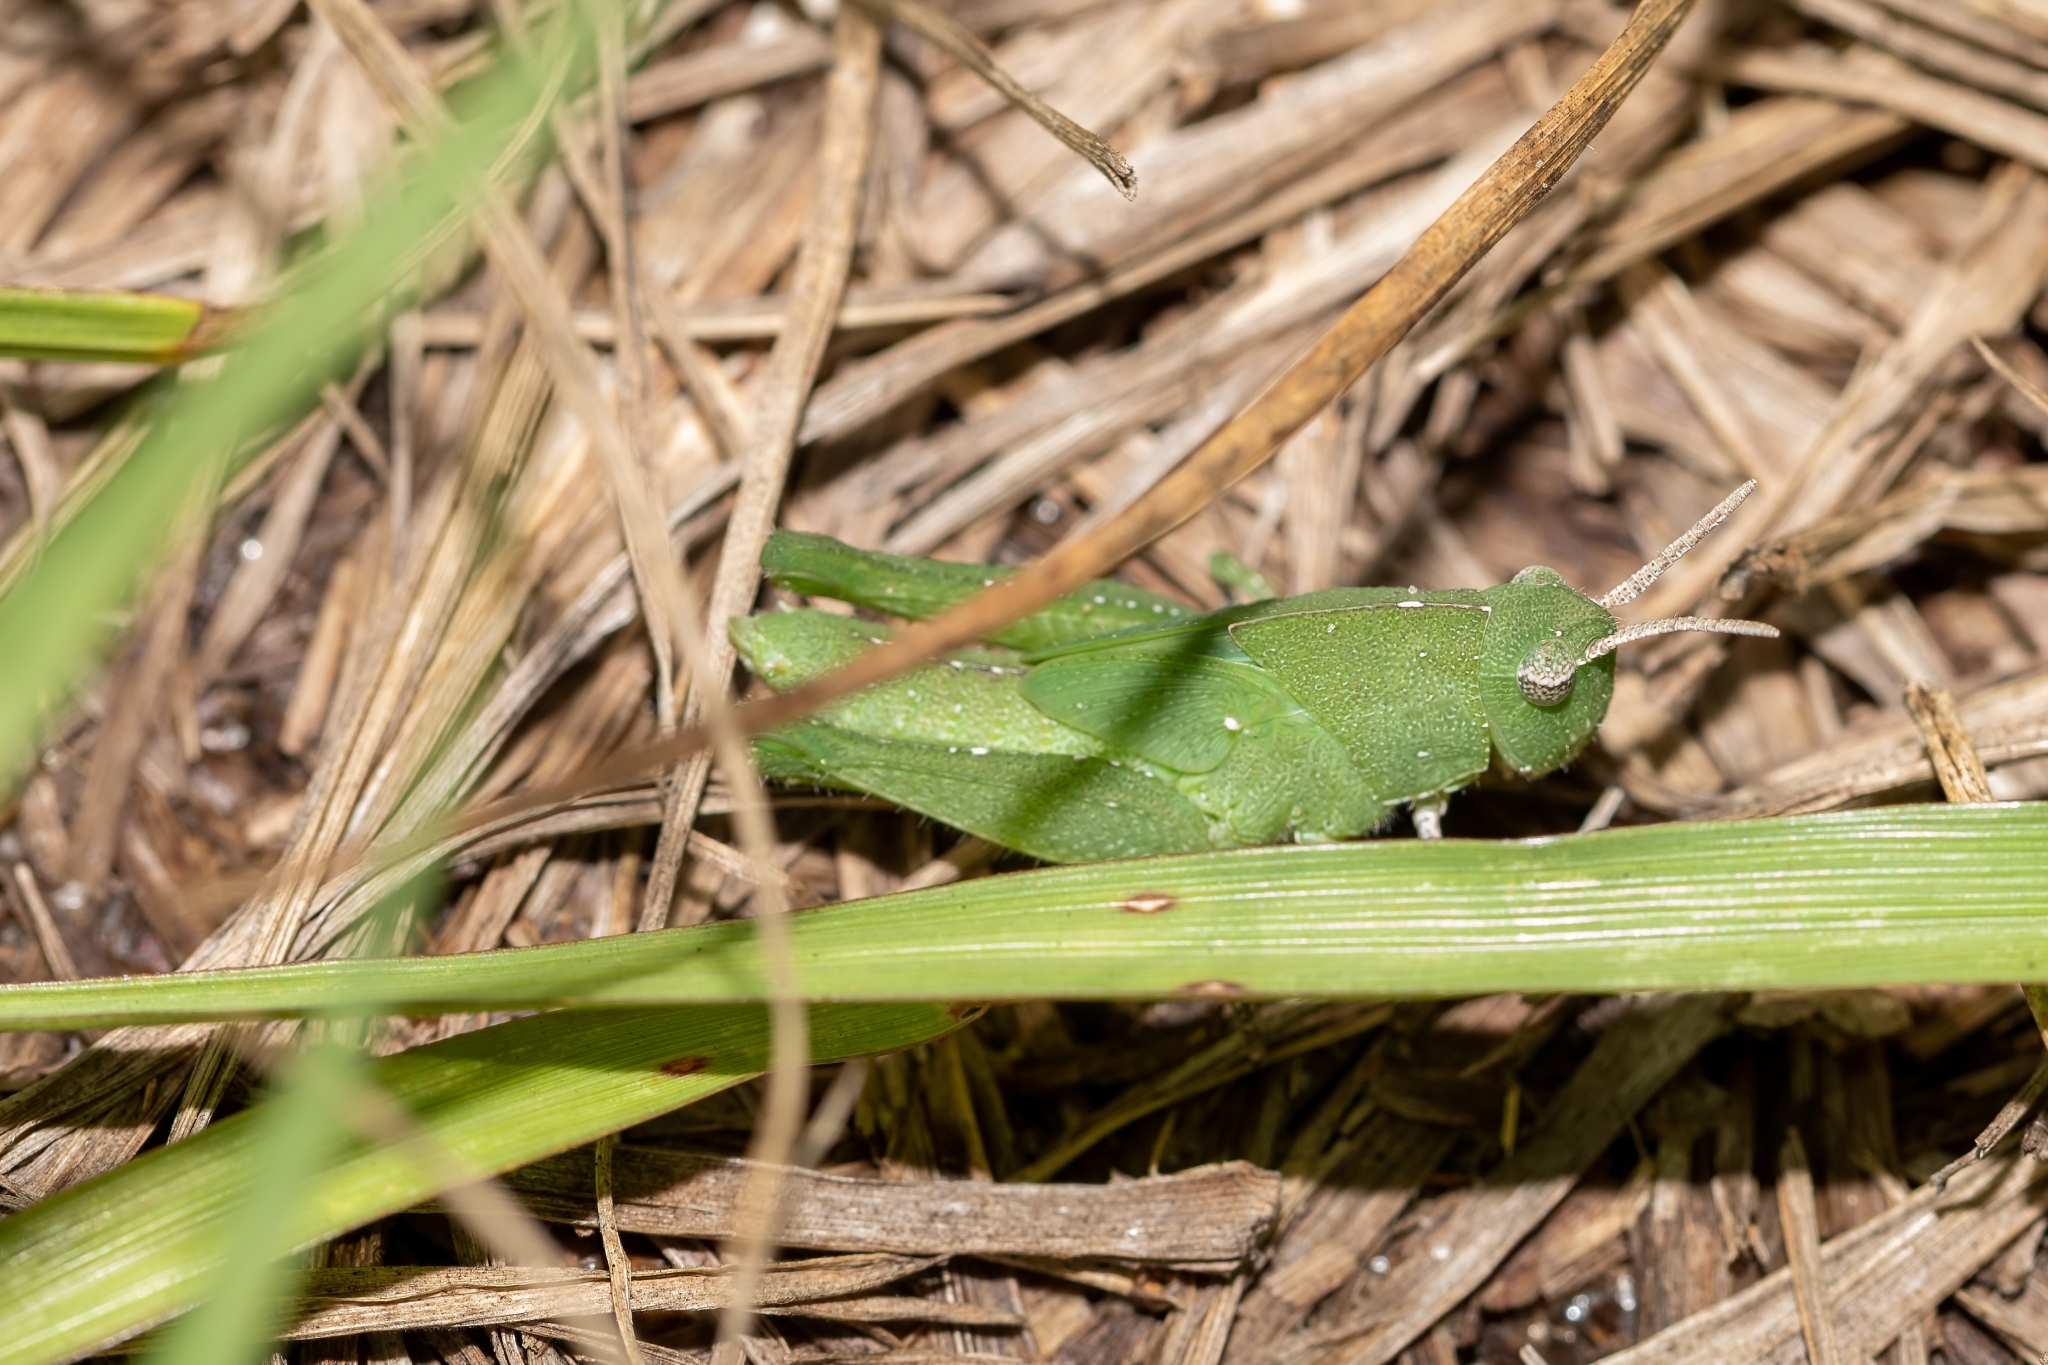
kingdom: Animalia
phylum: Arthropoda
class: Insecta
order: Orthoptera
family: Acrididae
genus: Chortophaga
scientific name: Chortophaga australior
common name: Southern green-striped grasshopper
